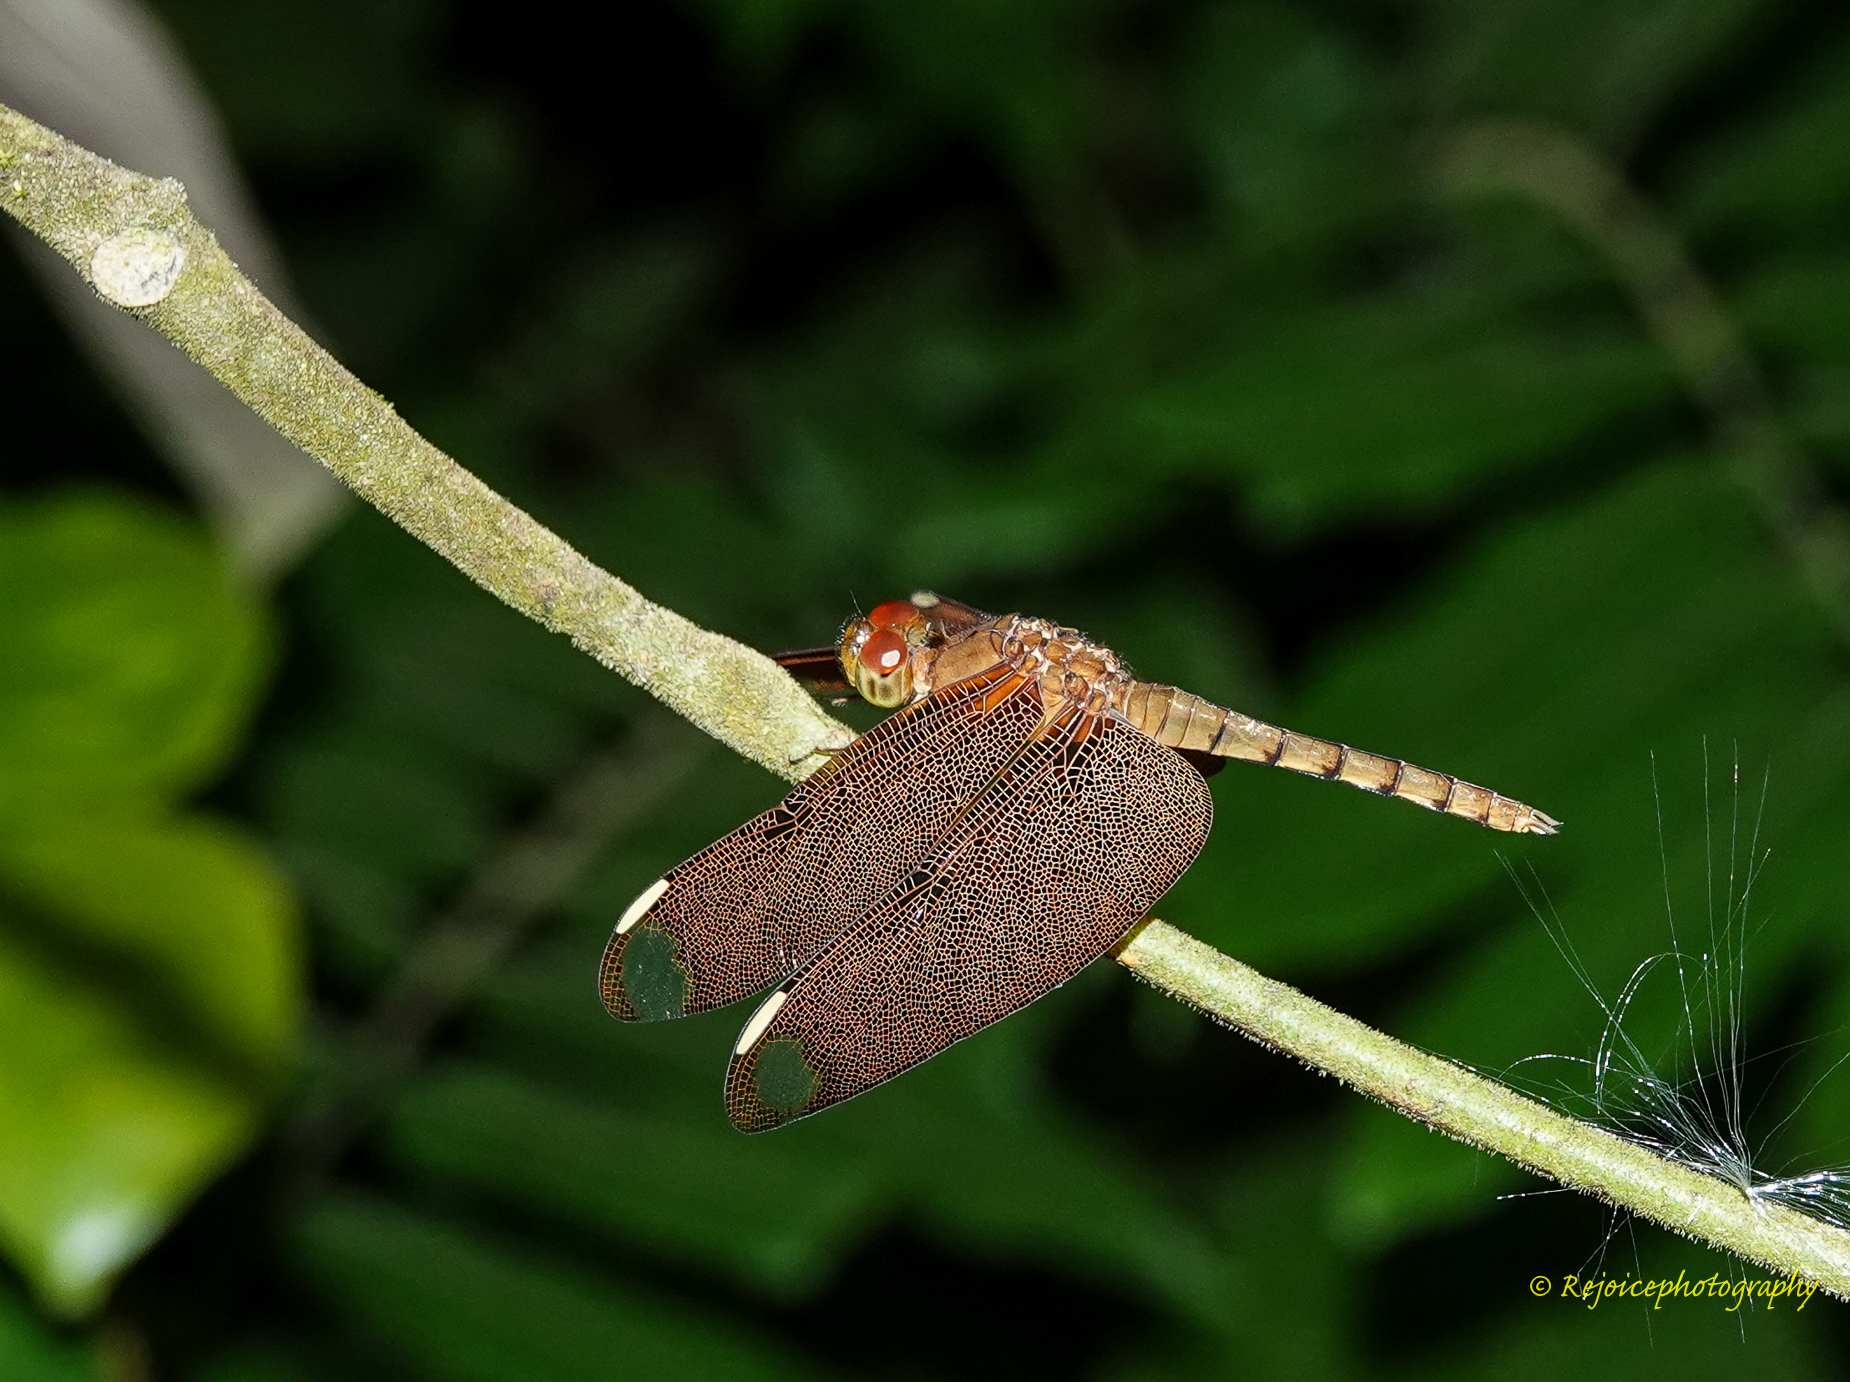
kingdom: Animalia
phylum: Arthropoda
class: Insecta
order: Odonata
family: Libellulidae
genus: Neurothemis
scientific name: Neurothemis fulvia
